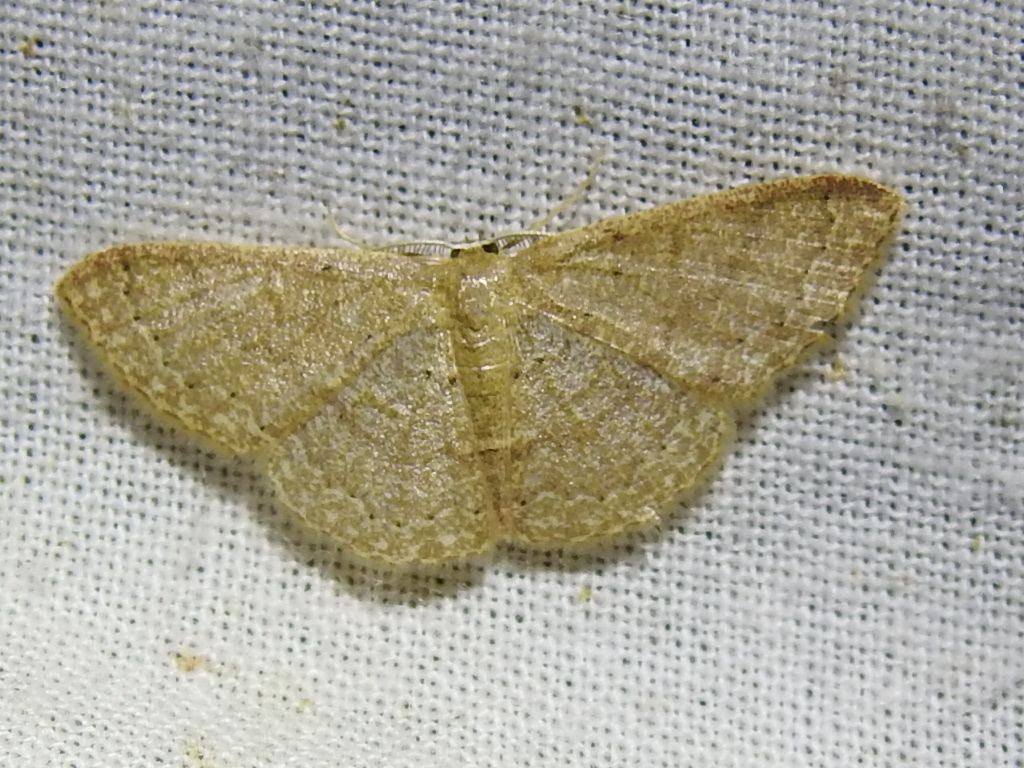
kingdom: Animalia
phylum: Arthropoda
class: Insecta
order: Lepidoptera
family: Geometridae
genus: Pleuroprucha
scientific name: Pleuroprucha insulsaria
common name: Common tan wave
